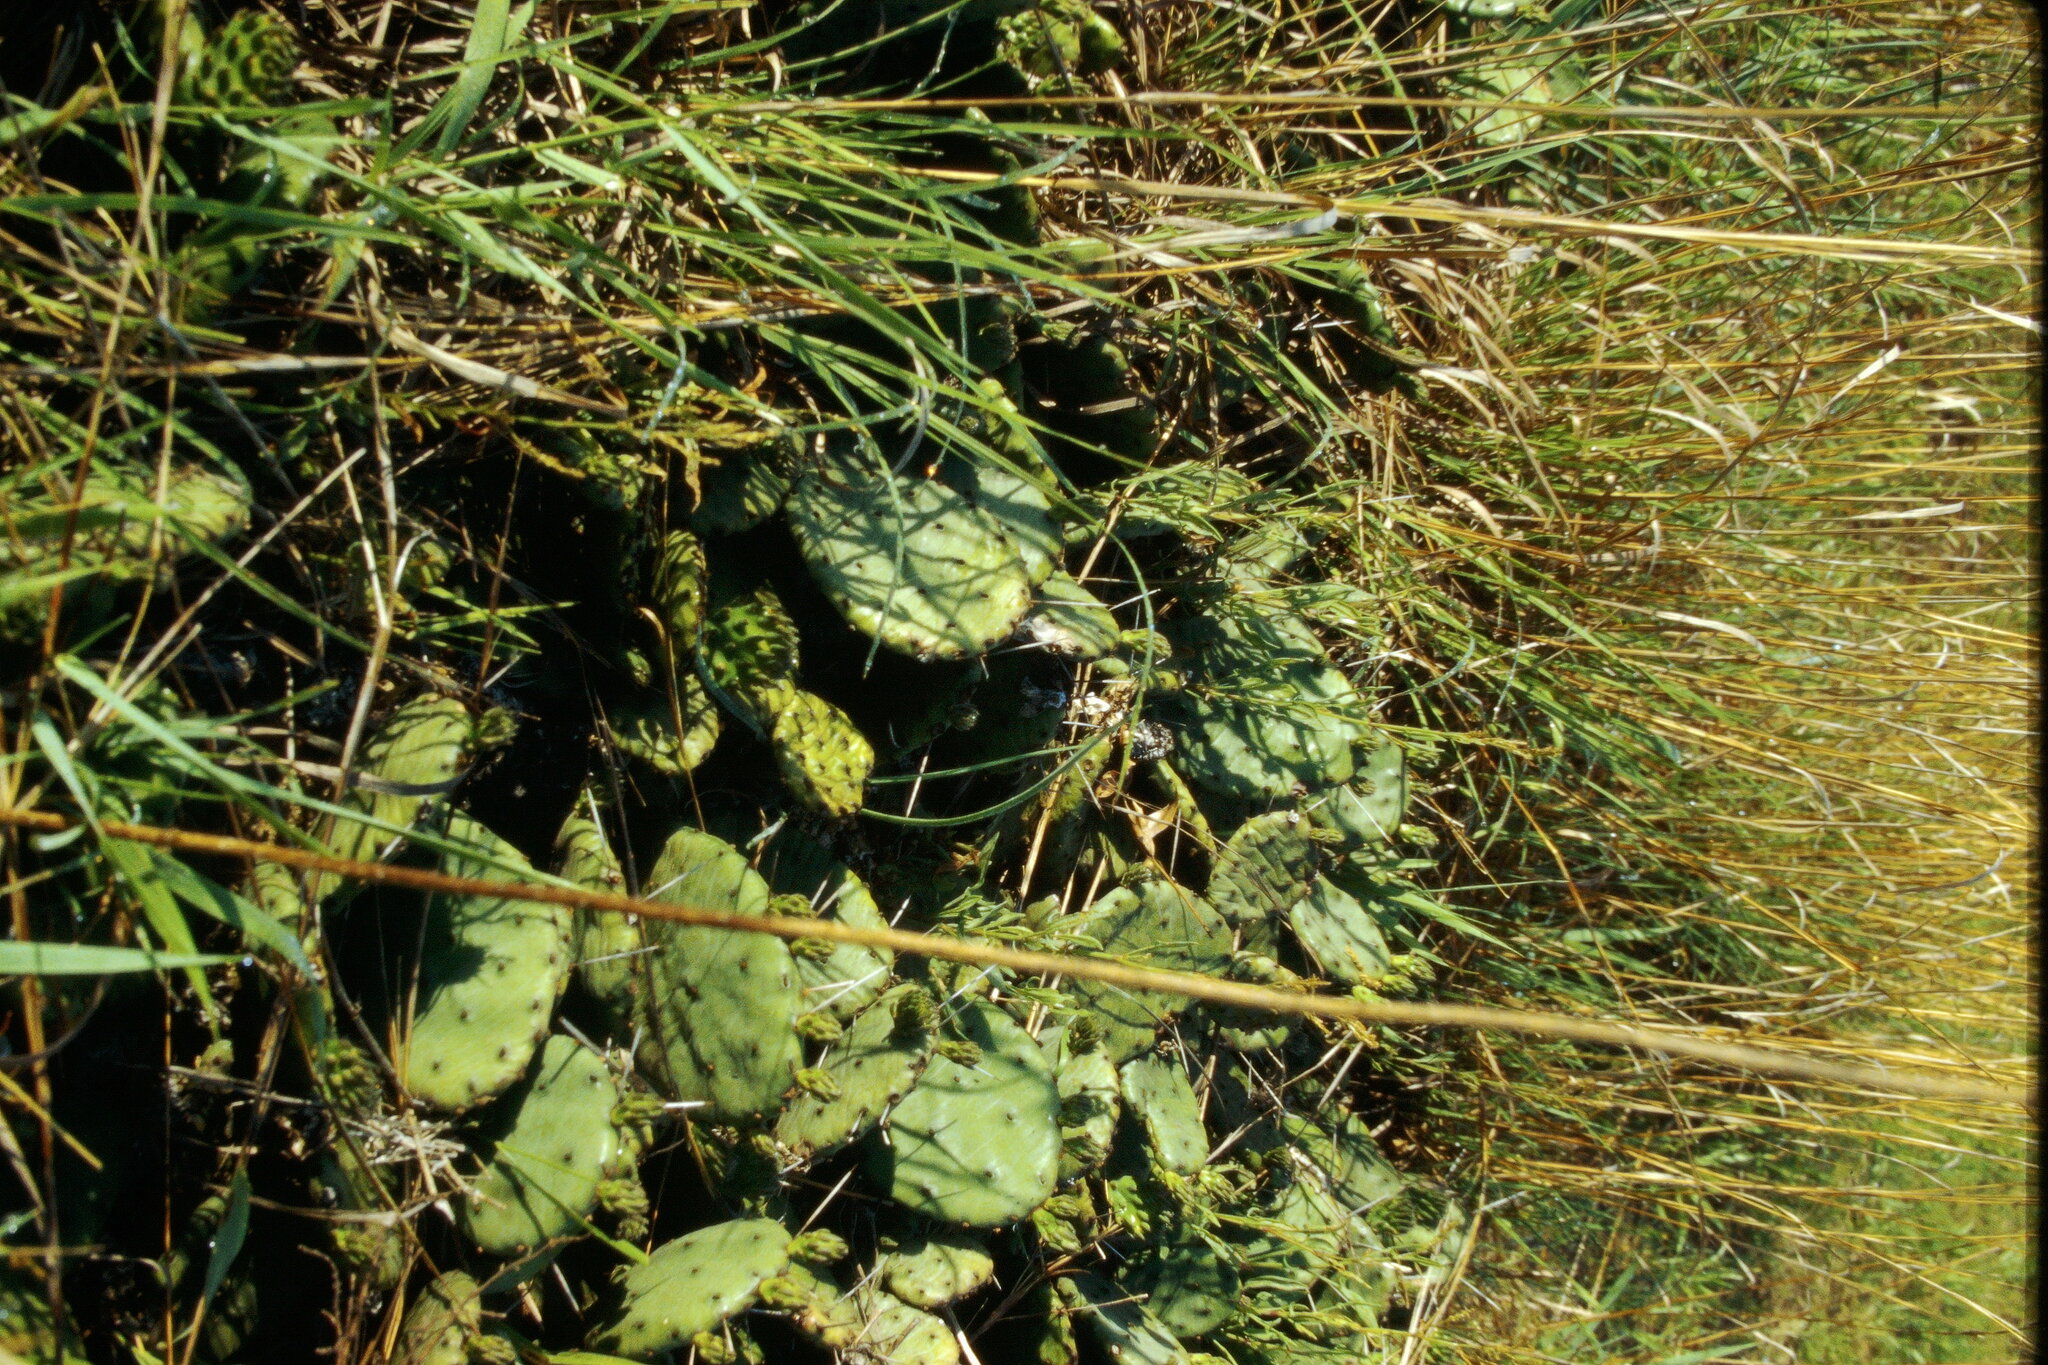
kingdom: Plantae
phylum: Tracheophyta
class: Magnoliopsida
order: Caryophyllales
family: Cactaceae
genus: Opuntia
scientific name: Opuntia humifusa
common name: Eastern prickly-pear
